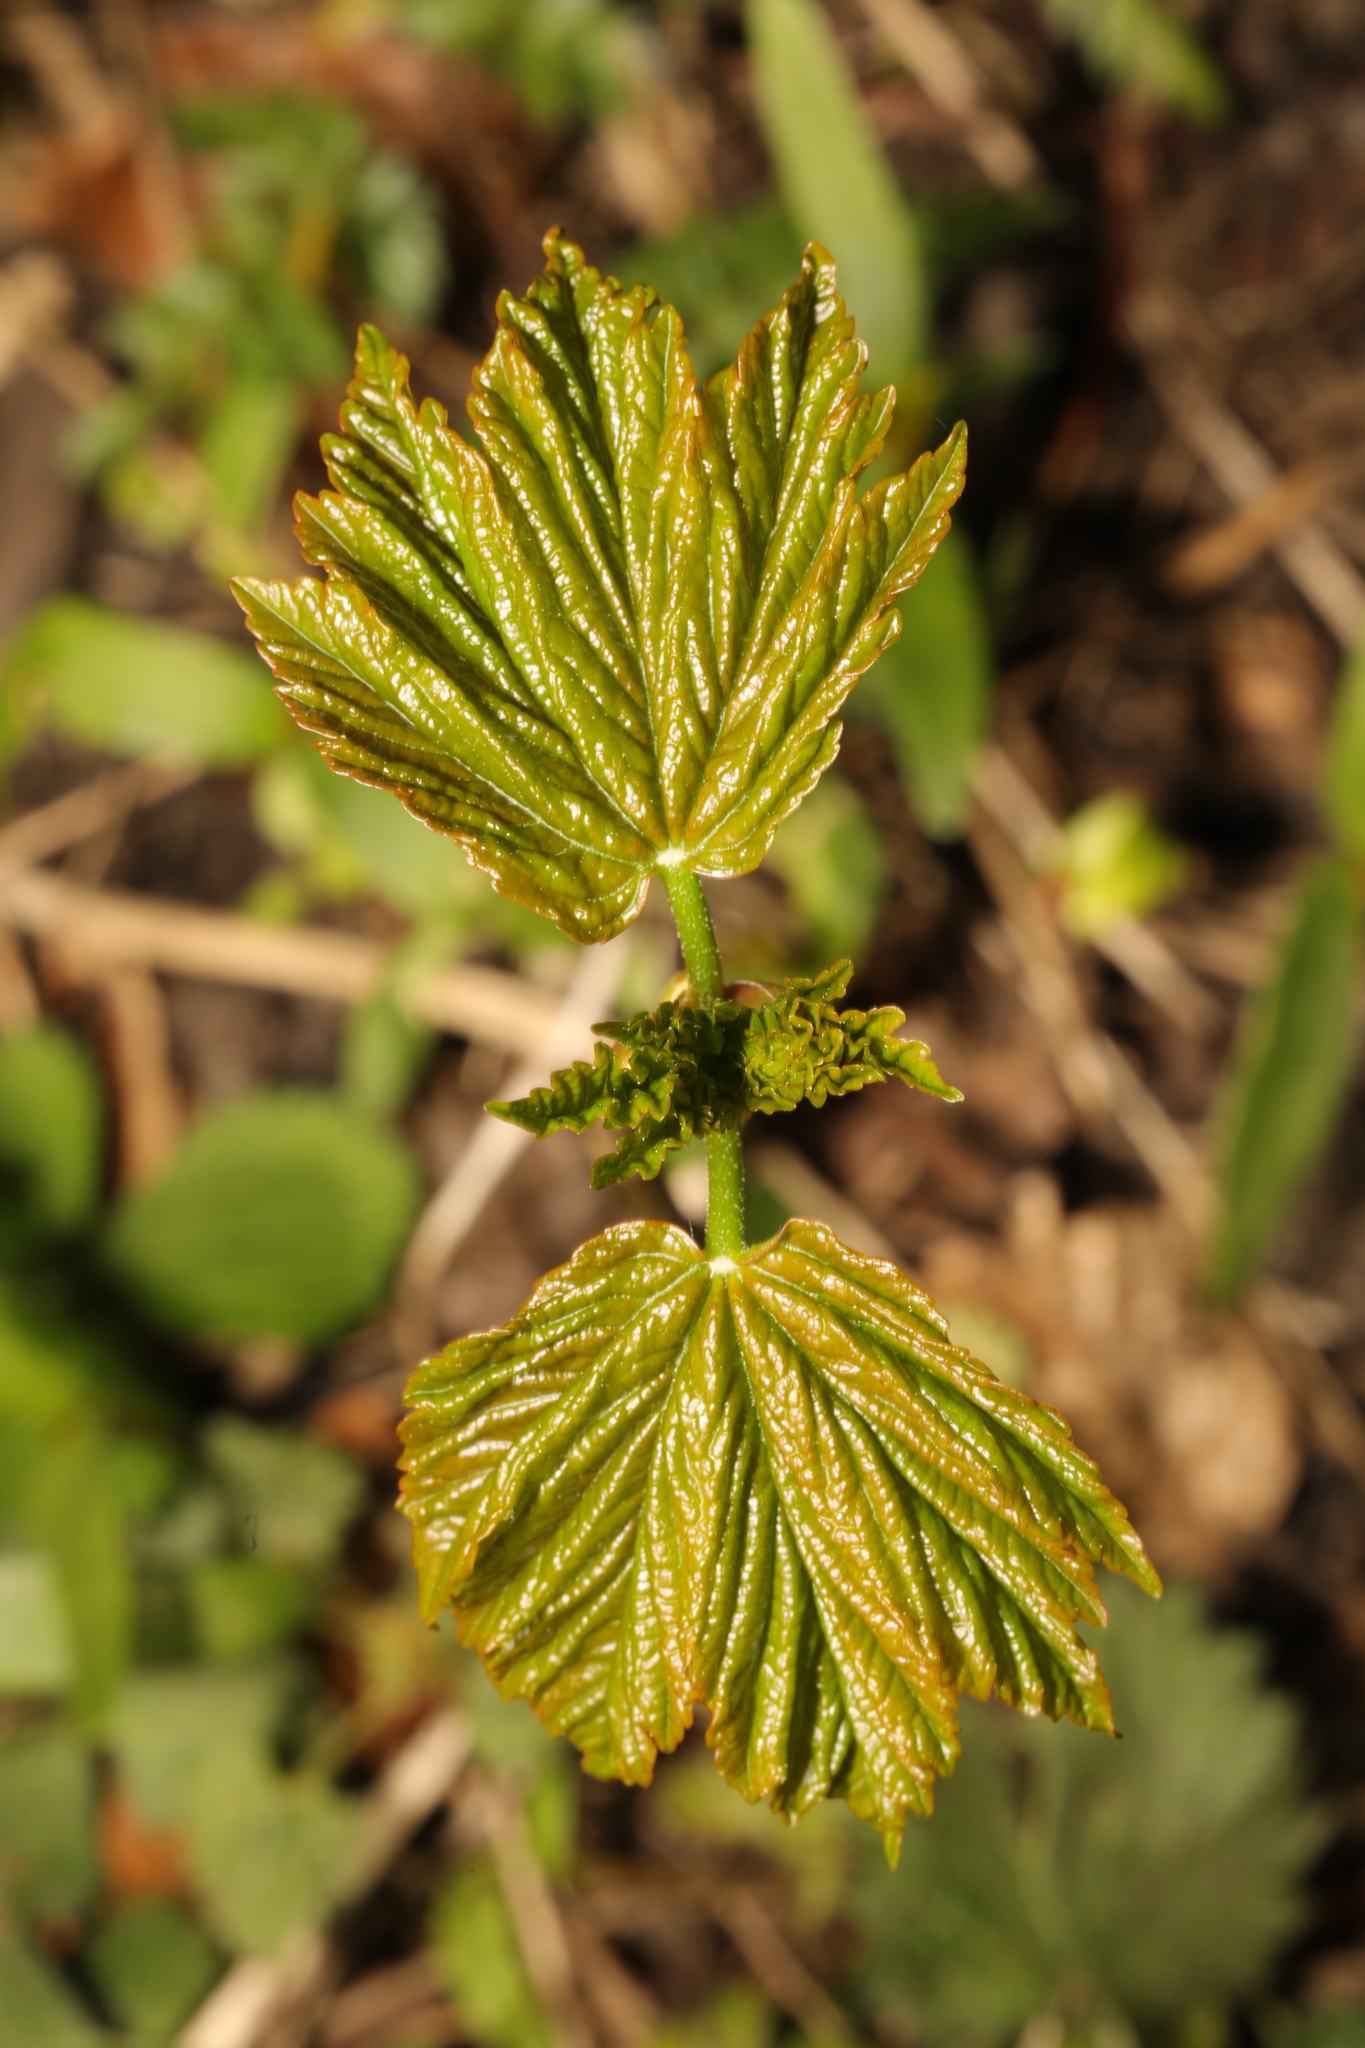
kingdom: Plantae
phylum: Tracheophyta
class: Magnoliopsida
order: Sapindales
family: Sapindaceae
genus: Acer
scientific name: Acer pseudoplatanus
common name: Sycamore
